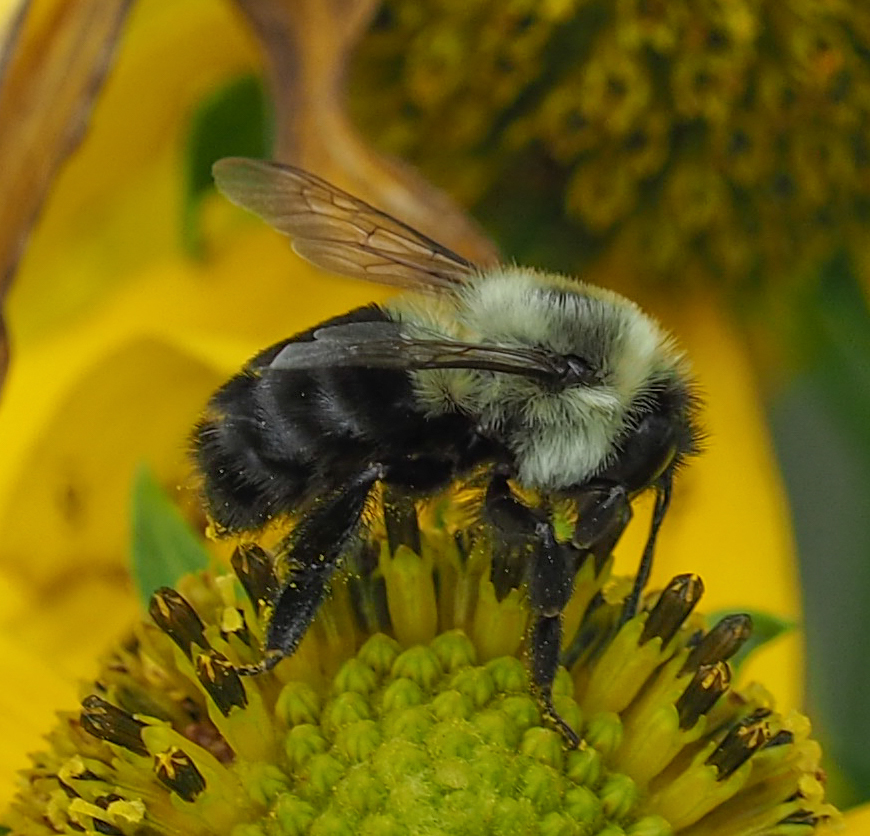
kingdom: Animalia
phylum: Arthropoda
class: Insecta
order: Hymenoptera
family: Apidae
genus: Bombus
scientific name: Bombus impatiens
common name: Common eastern bumble bee
